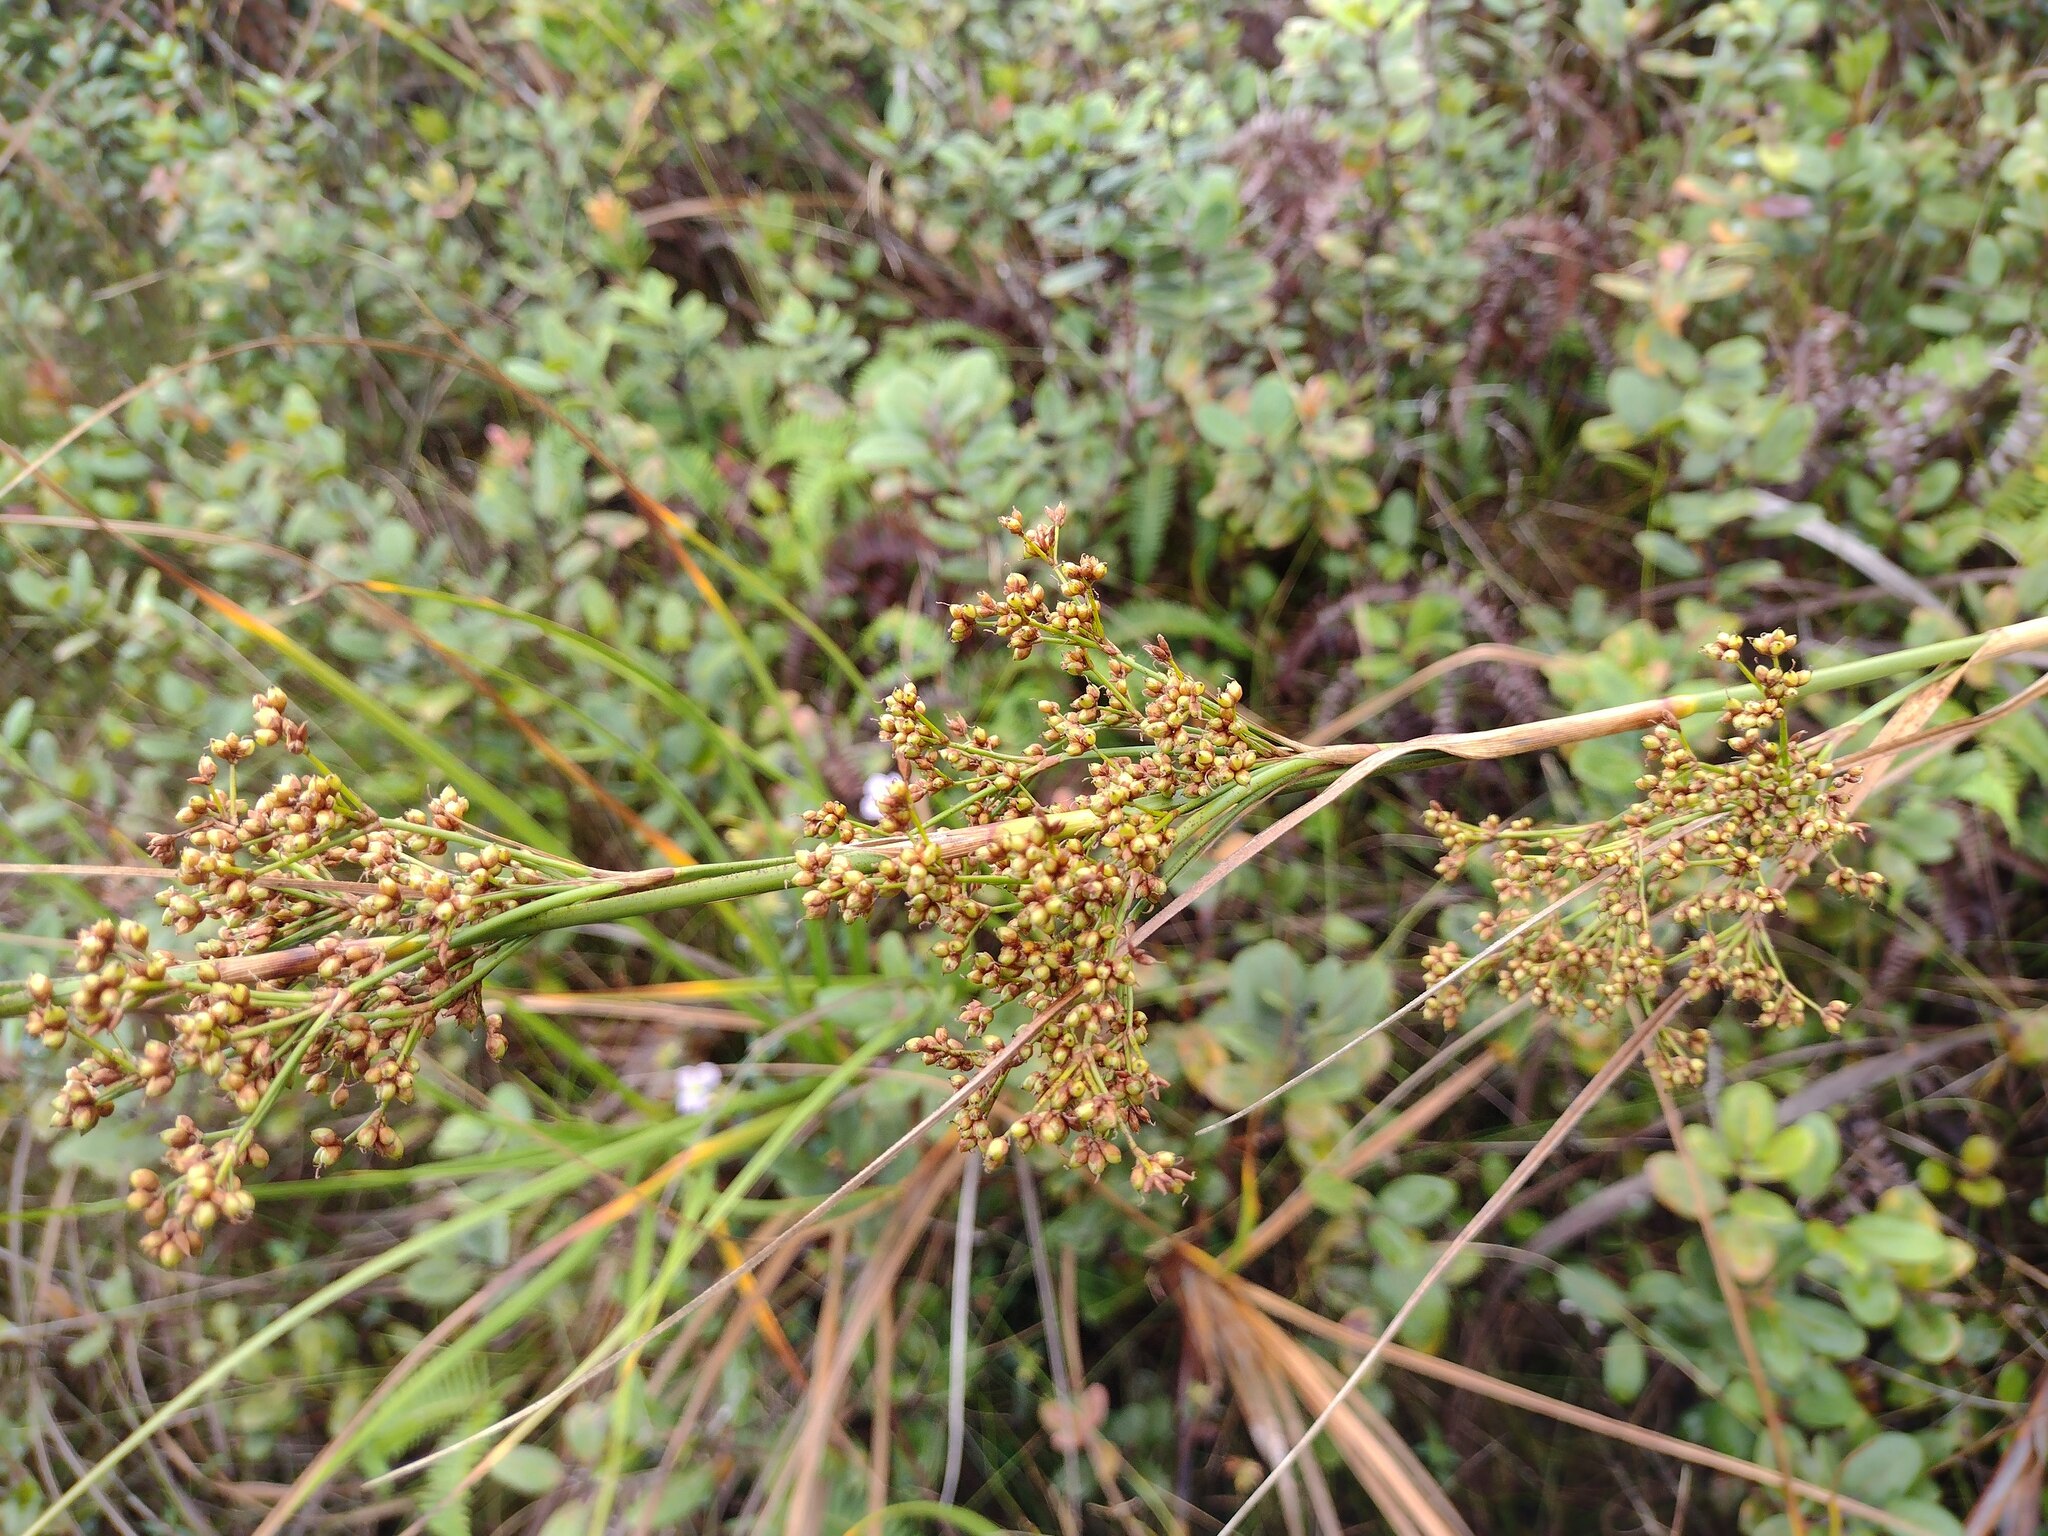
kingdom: Plantae
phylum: Tracheophyta
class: Liliopsida
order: Poales
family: Cyperaceae
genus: Cladium
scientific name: Cladium mariscus
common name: Great fen-sedge
